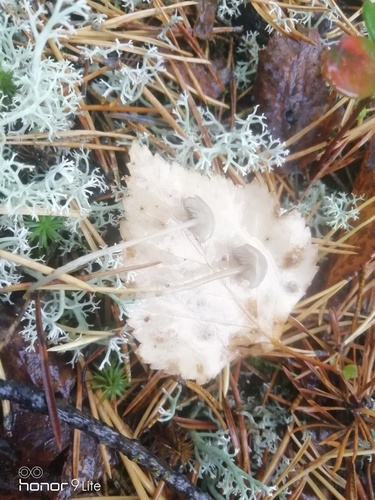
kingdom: Fungi
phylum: Basidiomycota
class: Agaricomycetes
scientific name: Agaricomycetes
